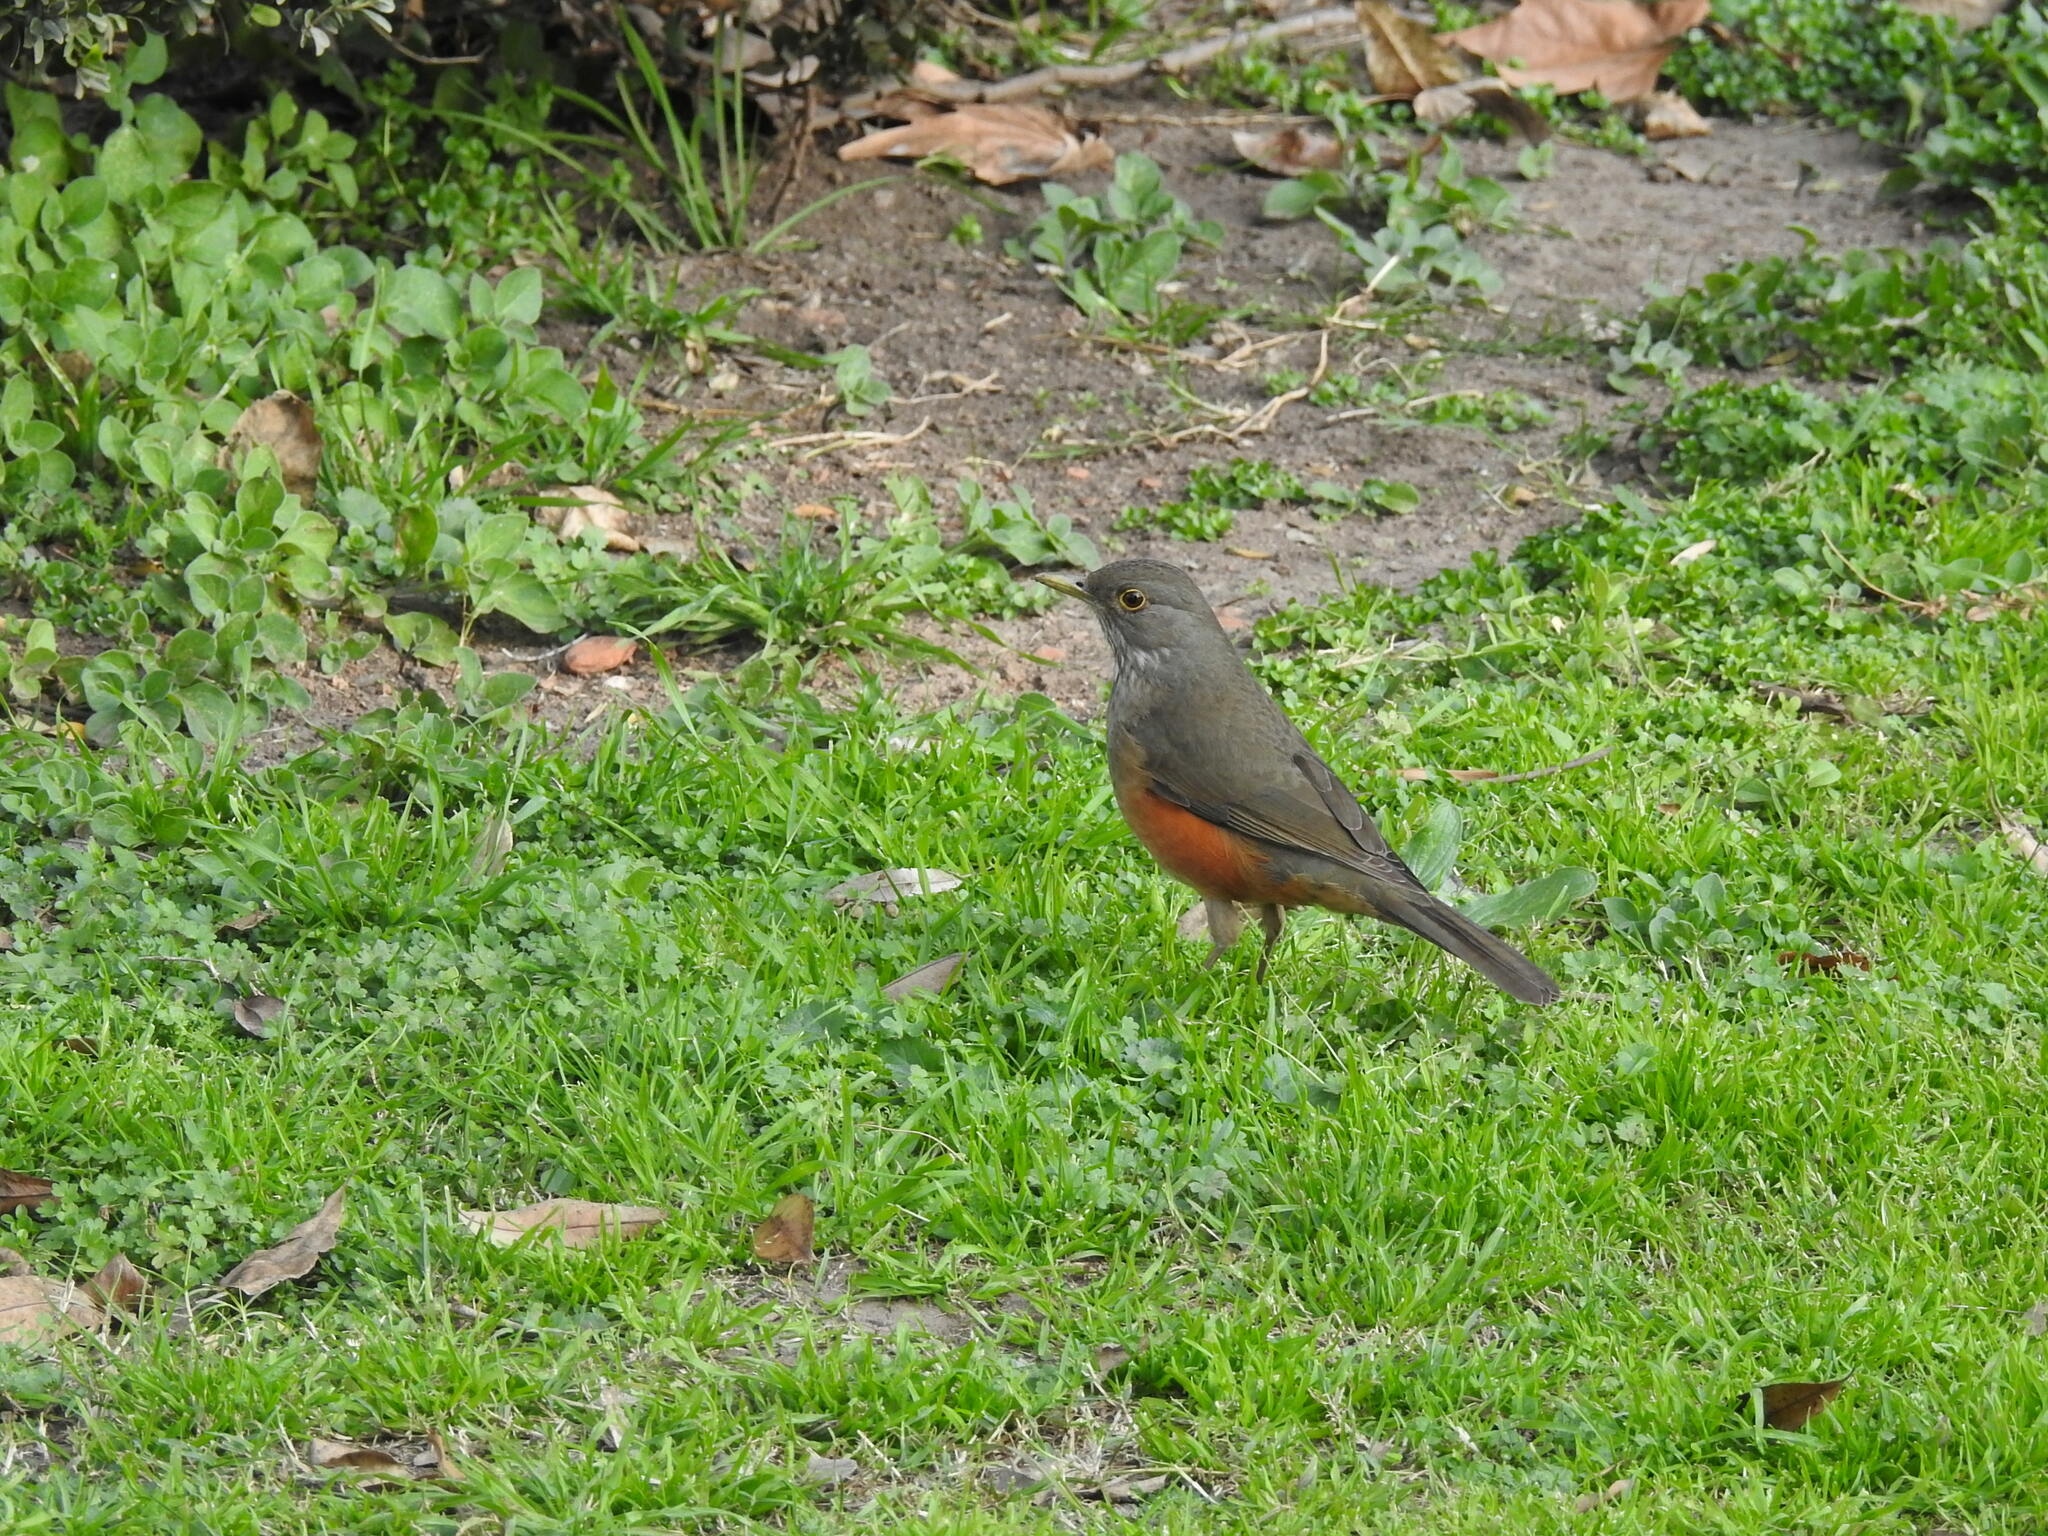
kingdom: Animalia
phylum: Chordata
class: Aves
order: Passeriformes
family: Turdidae
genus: Turdus
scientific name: Turdus rufiventris
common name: Rufous-bellied thrush
